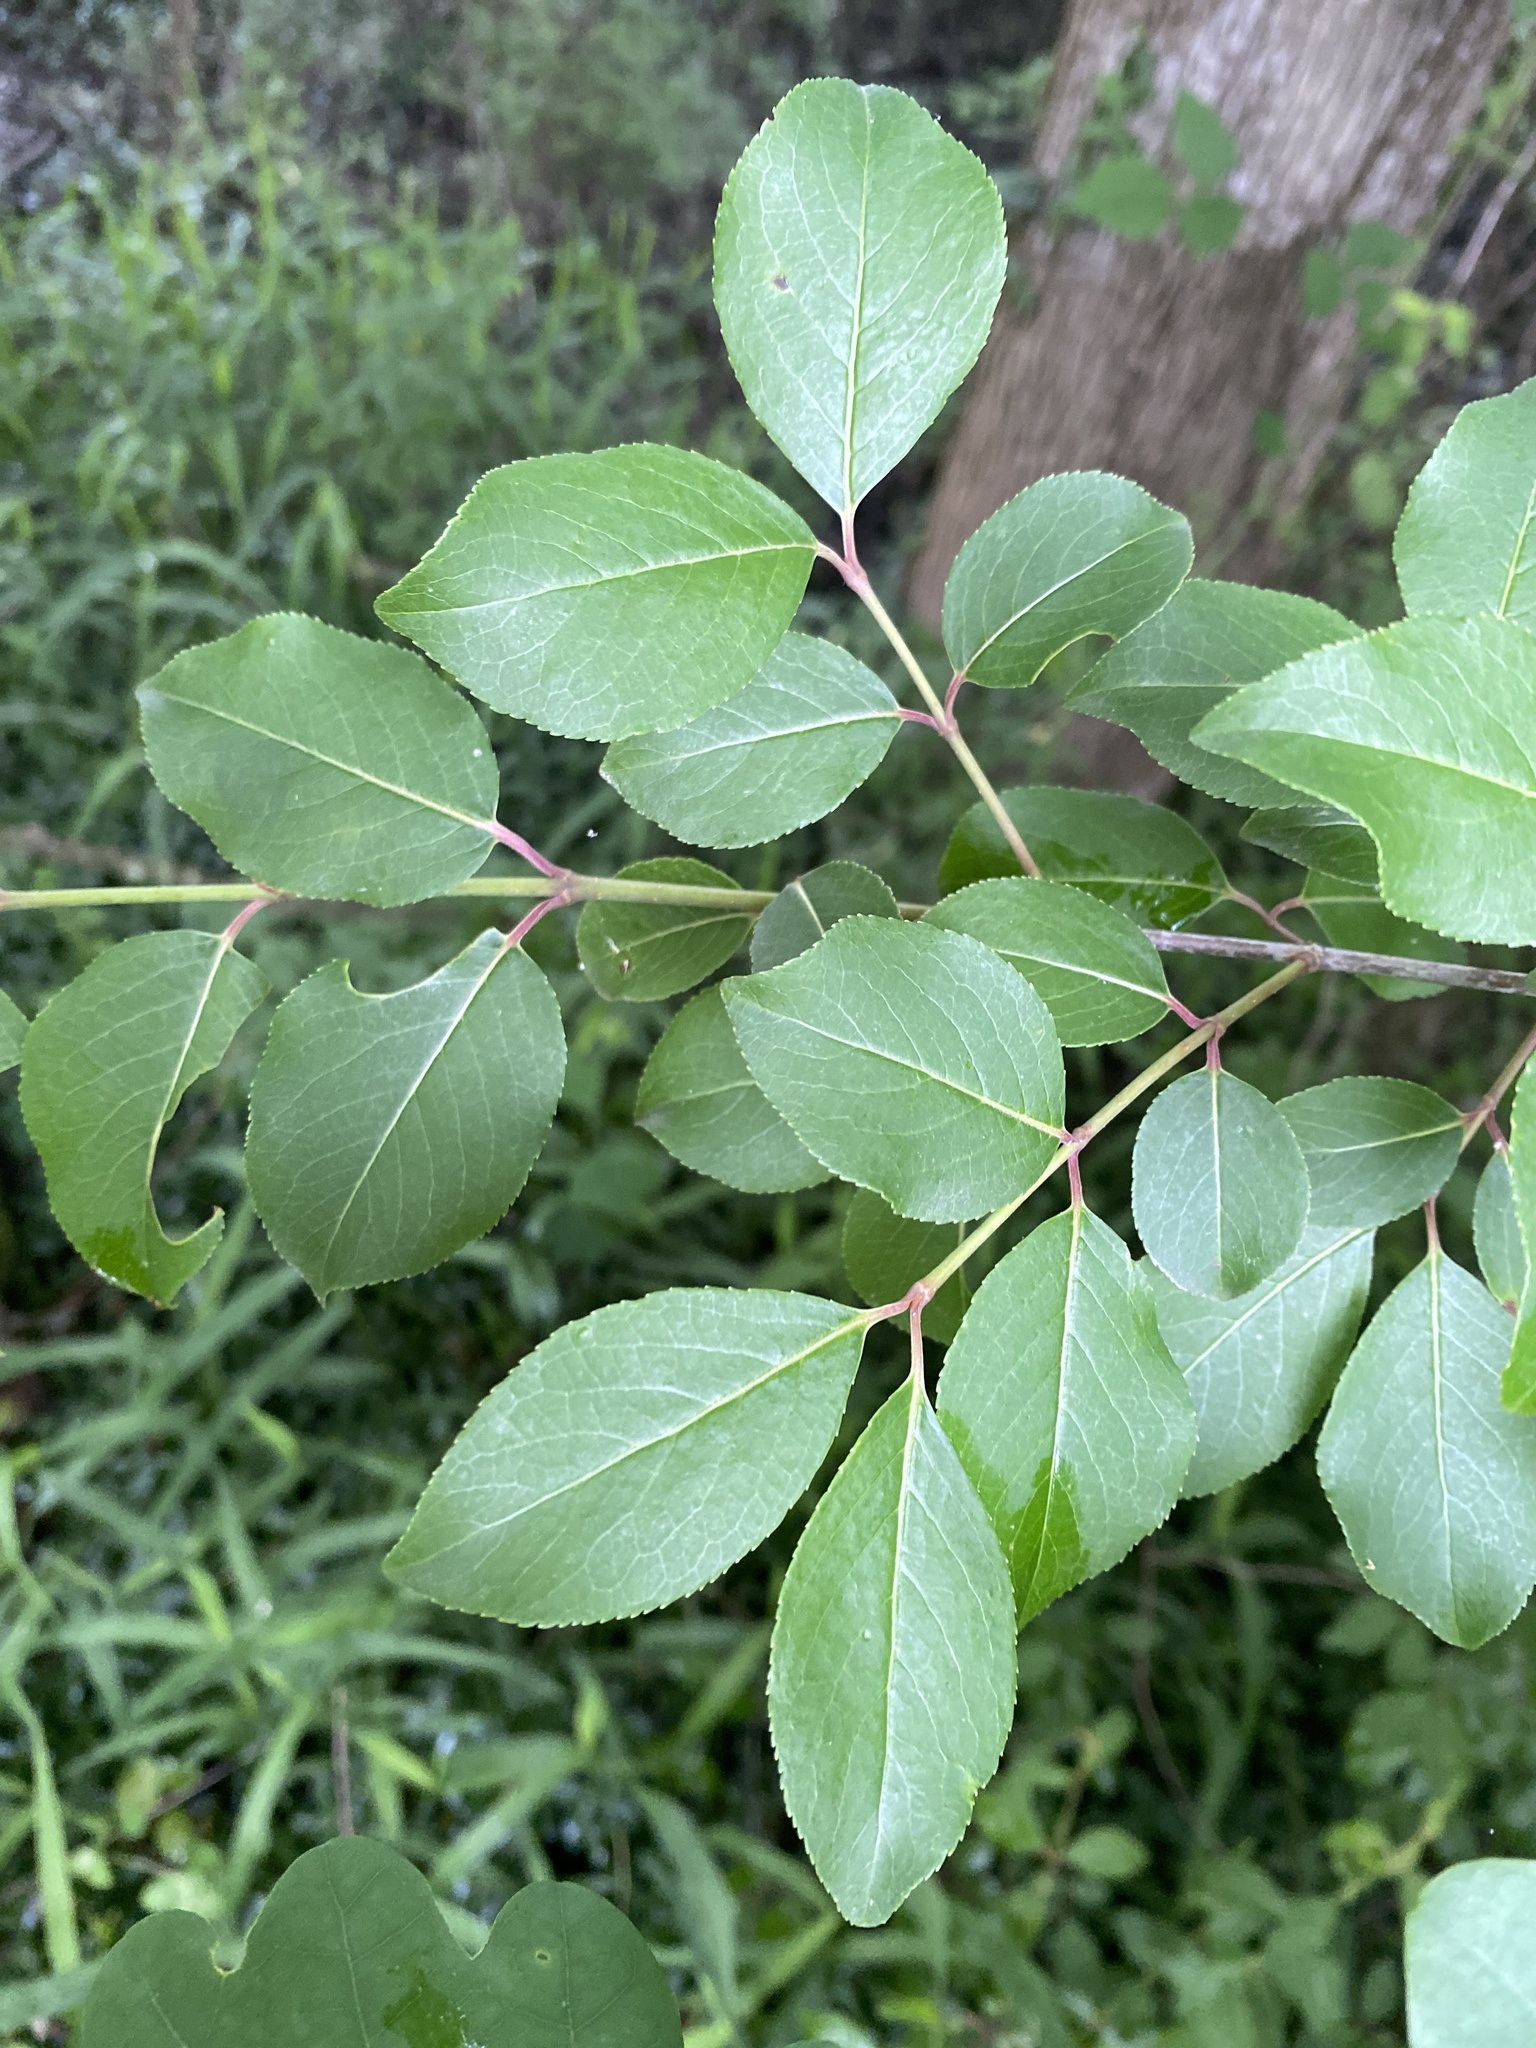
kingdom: Plantae
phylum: Tracheophyta
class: Magnoliopsida
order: Dipsacales
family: Viburnaceae
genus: Viburnum
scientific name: Viburnum prunifolium
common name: Black haw
